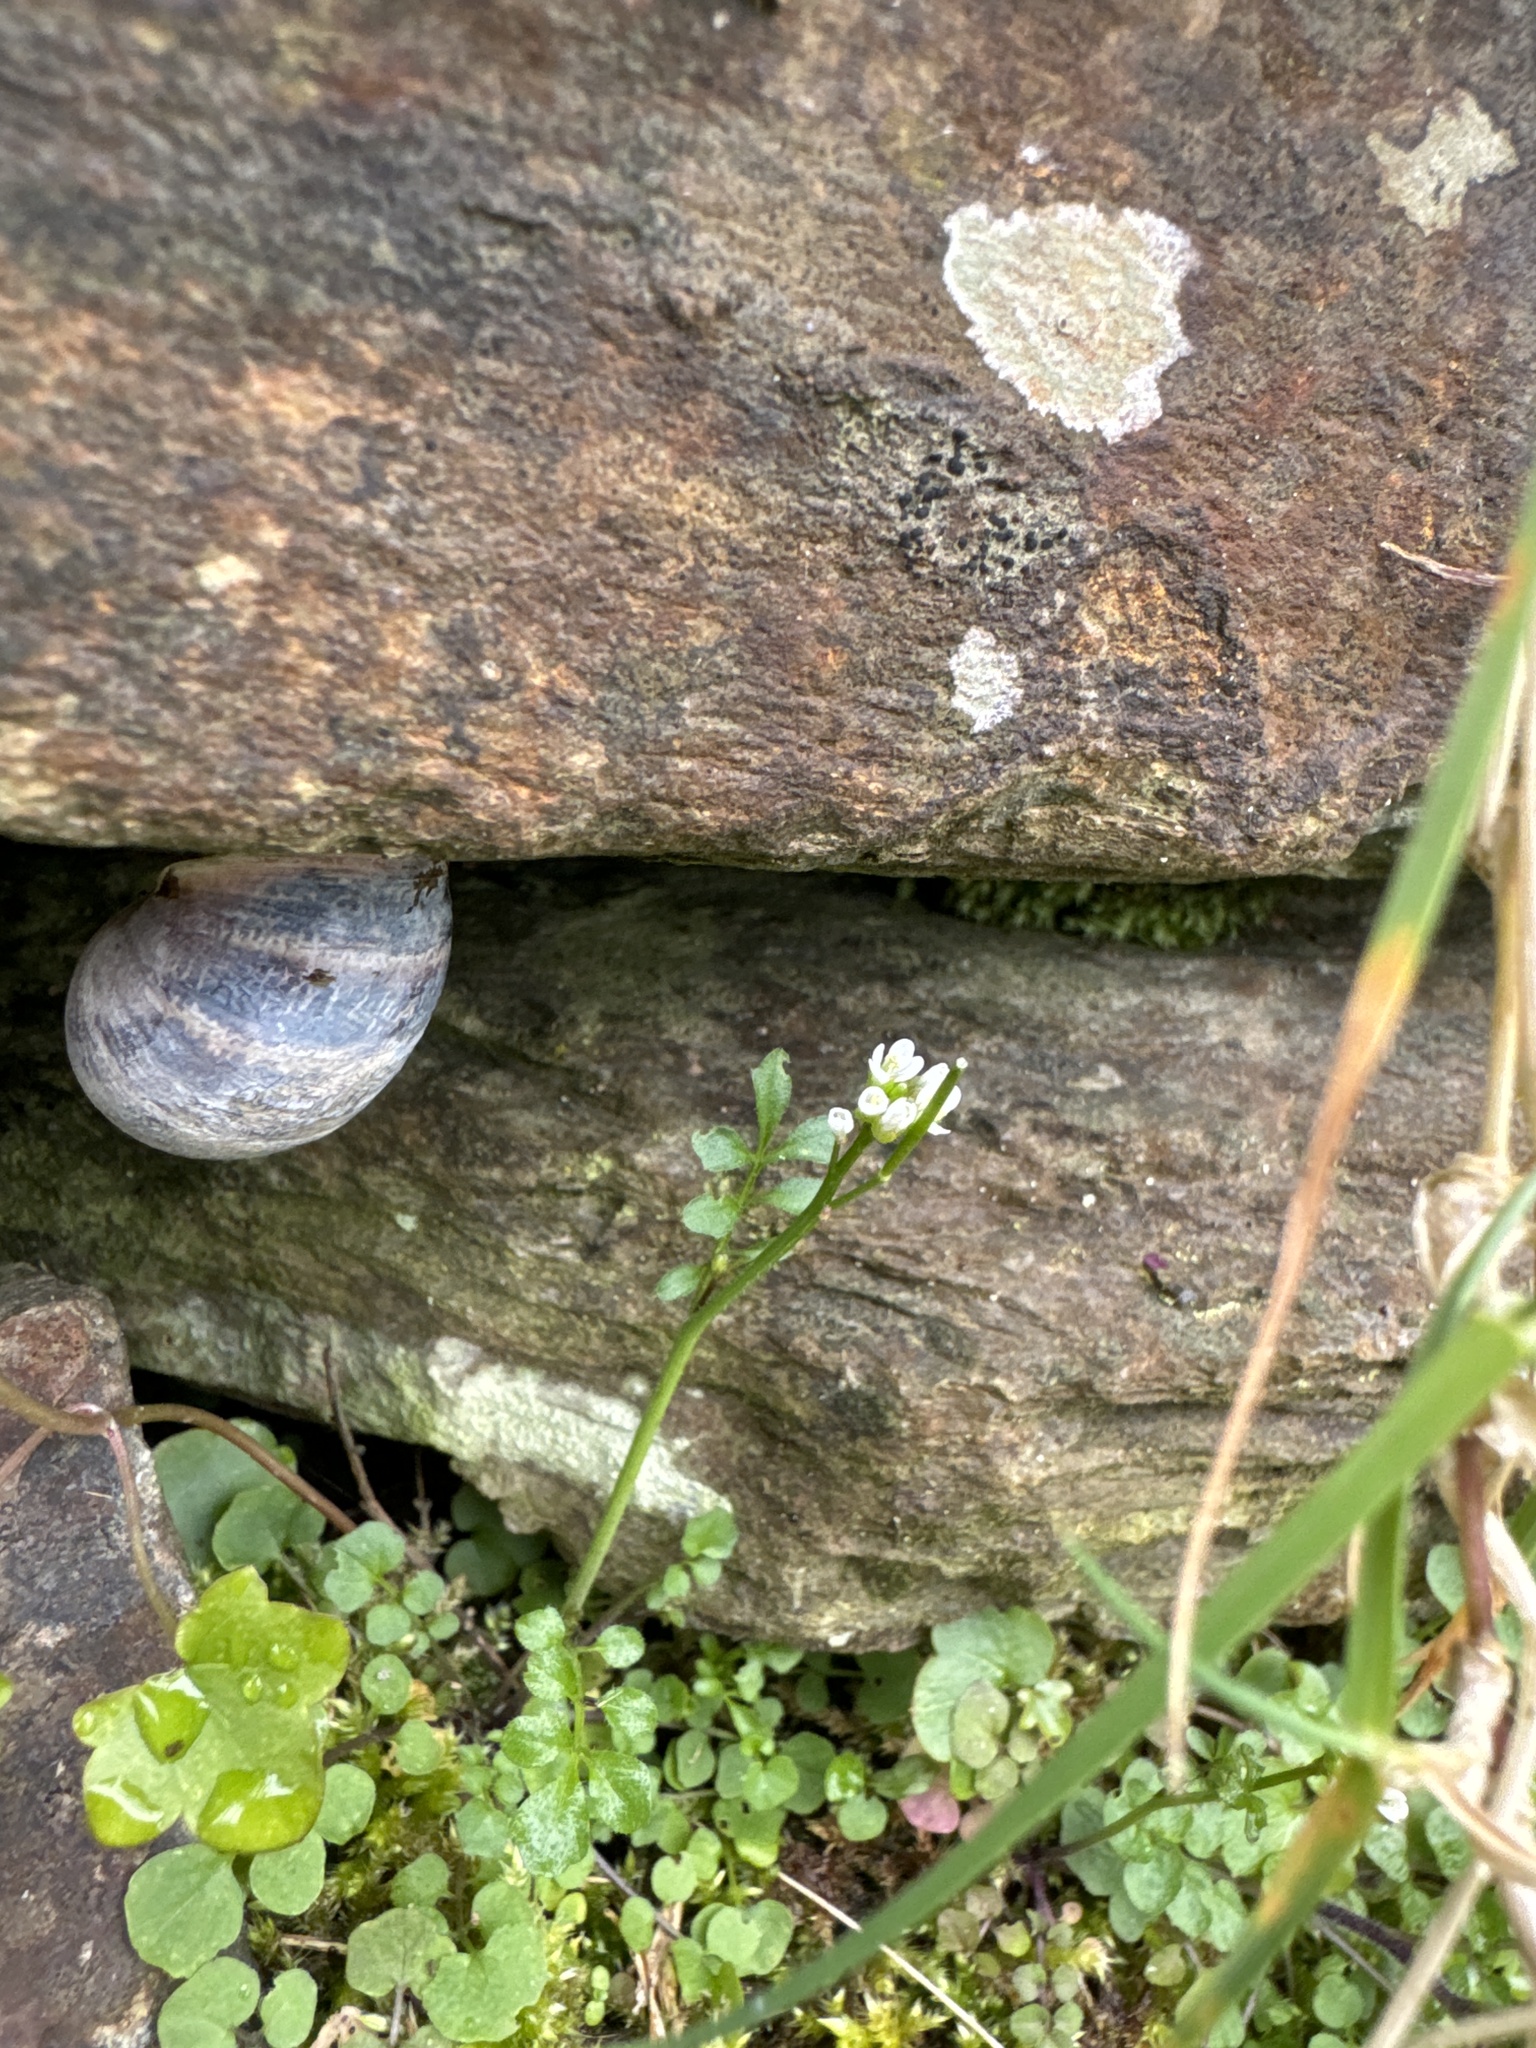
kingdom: Animalia
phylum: Mollusca
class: Gastropoda
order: Stylommatophora
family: Helicidae
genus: Cornu
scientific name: Cornu aspersum
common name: Brown garden snail
